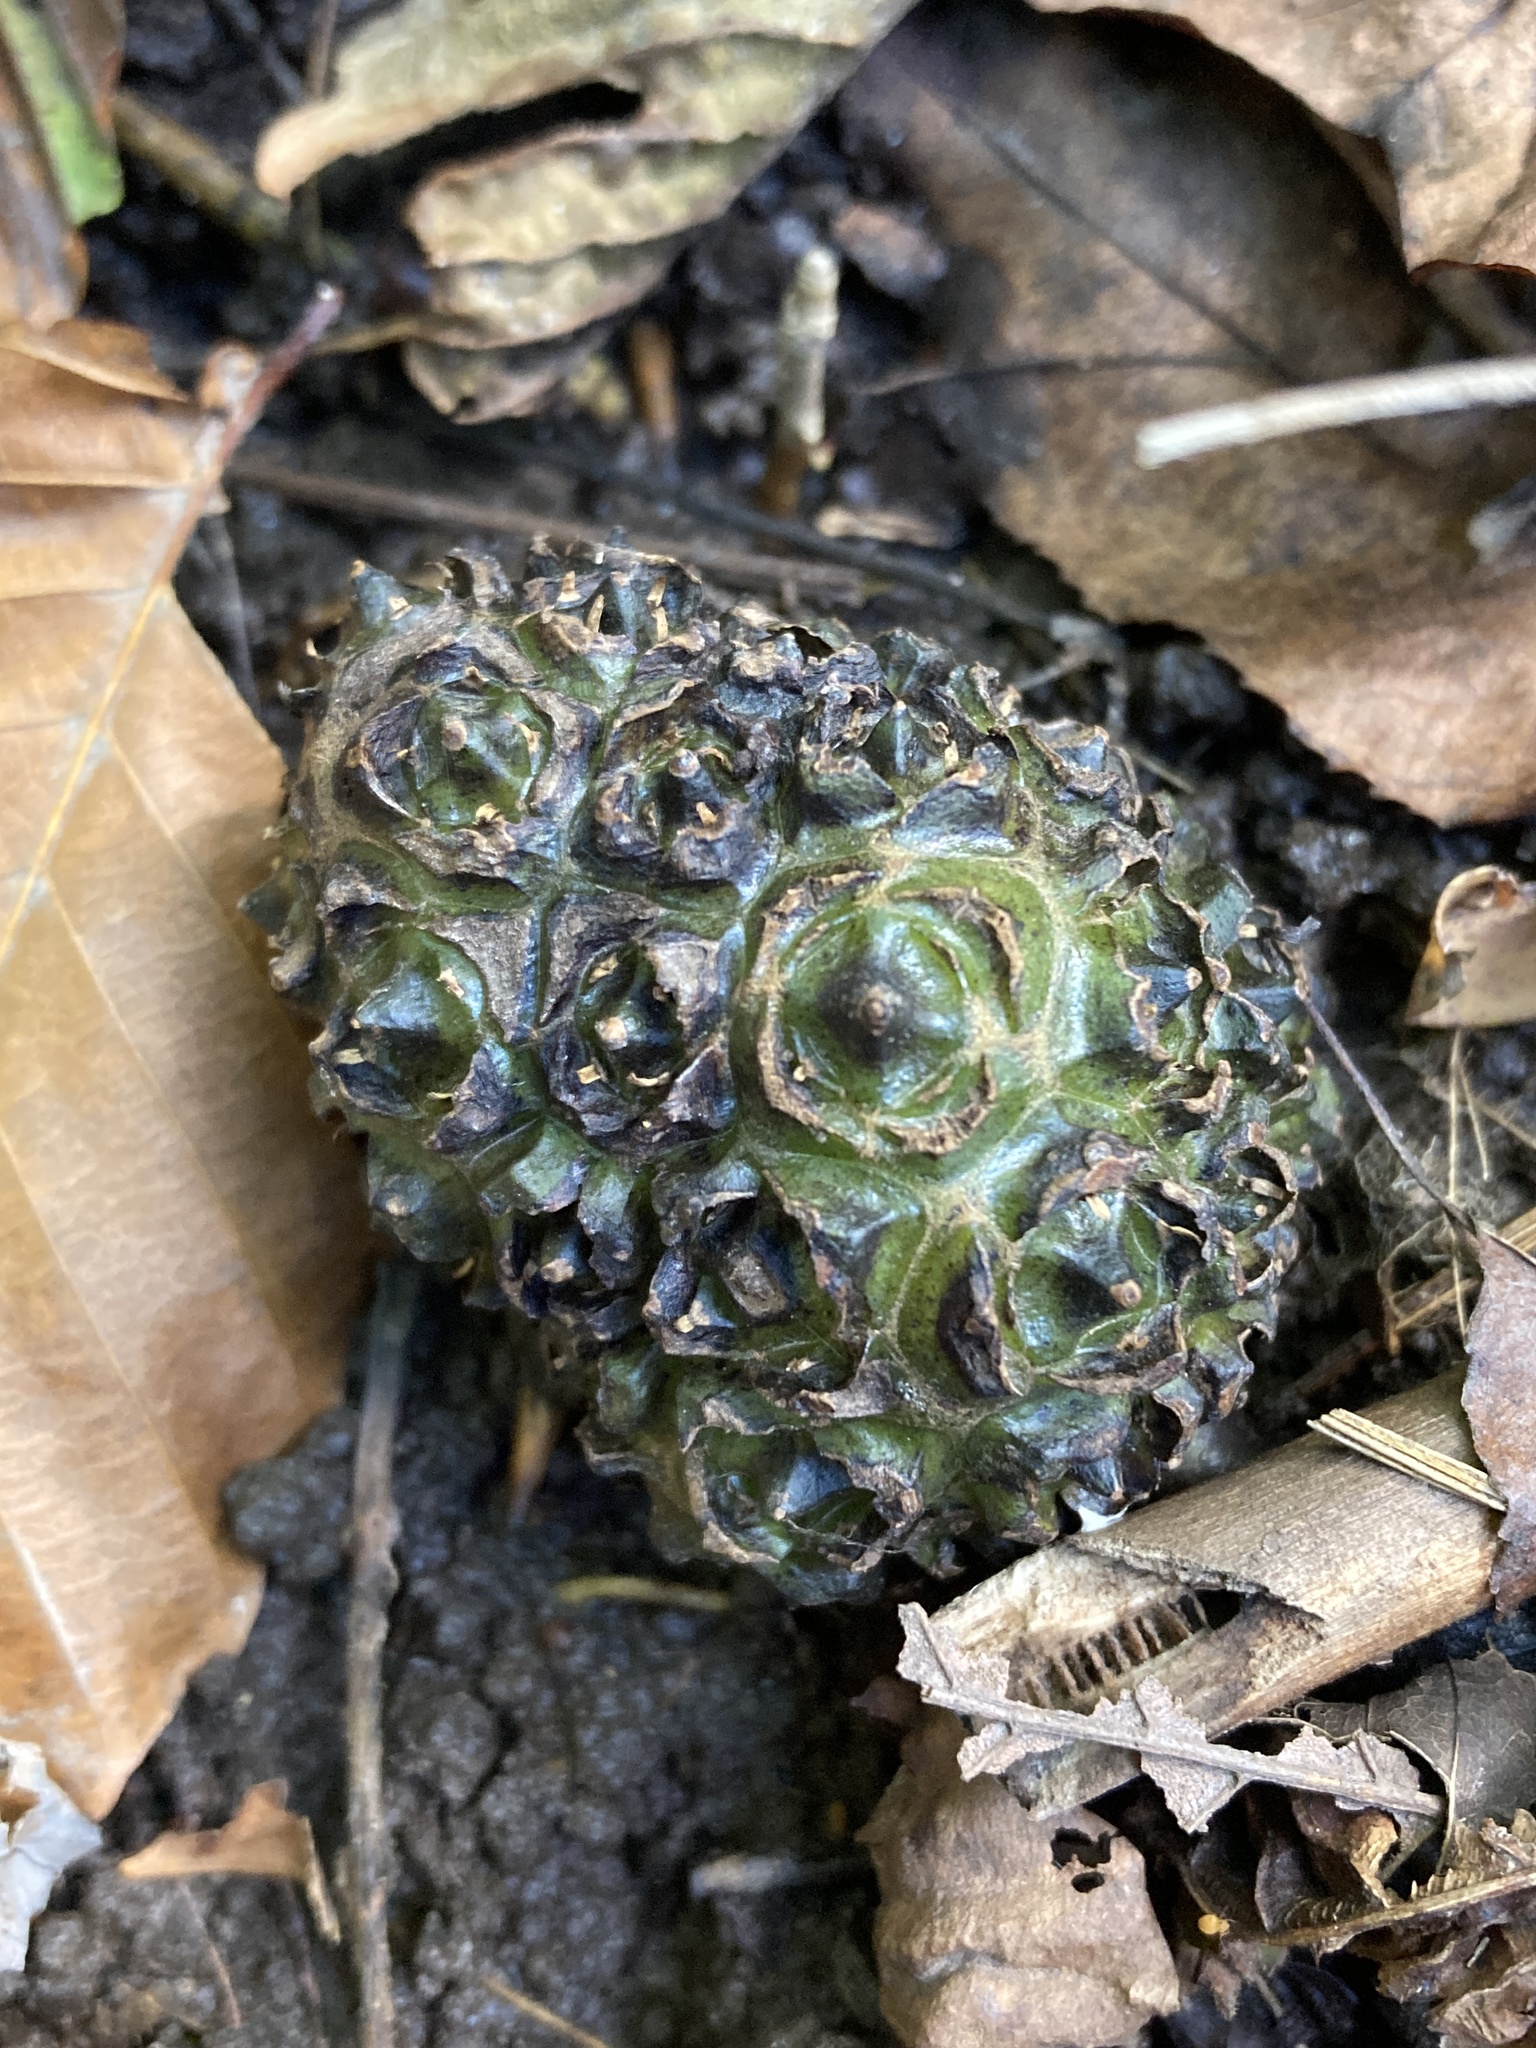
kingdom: Plantae
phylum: Tracheophyta
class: Liliopsida
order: Alismatales
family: Araceae
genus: Symplocarpus
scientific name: Symplocarpus foetidus
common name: Eastern skunk cabbage
